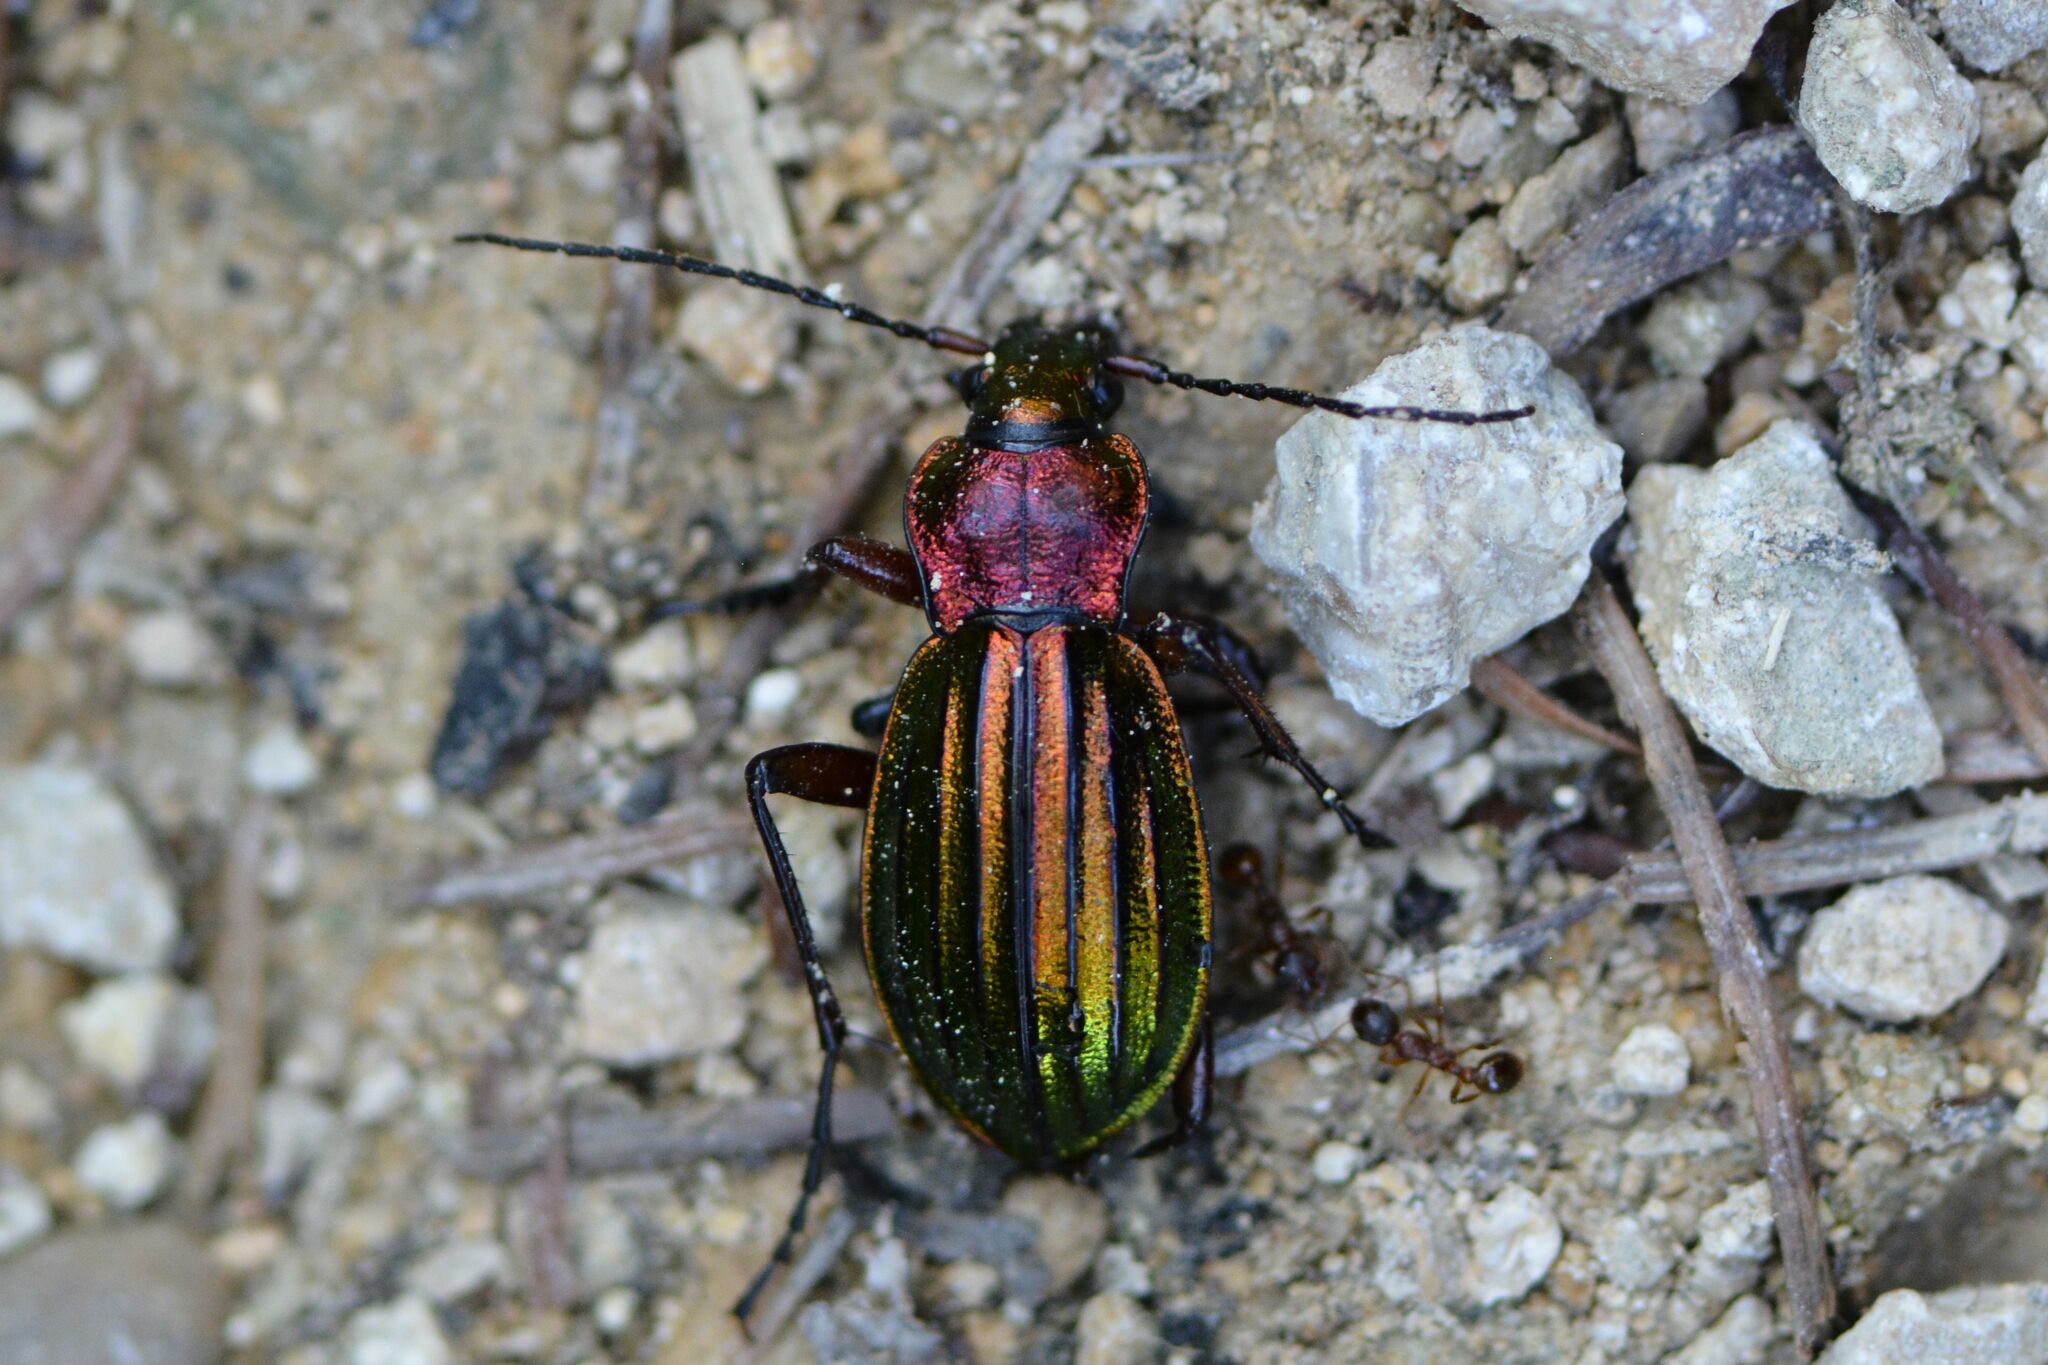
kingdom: Animalia
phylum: Arthropoda
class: Insecta
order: Coleoptera
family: Carabidae
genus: Carabus
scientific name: Carabus auronitens
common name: Carabus auronitens
